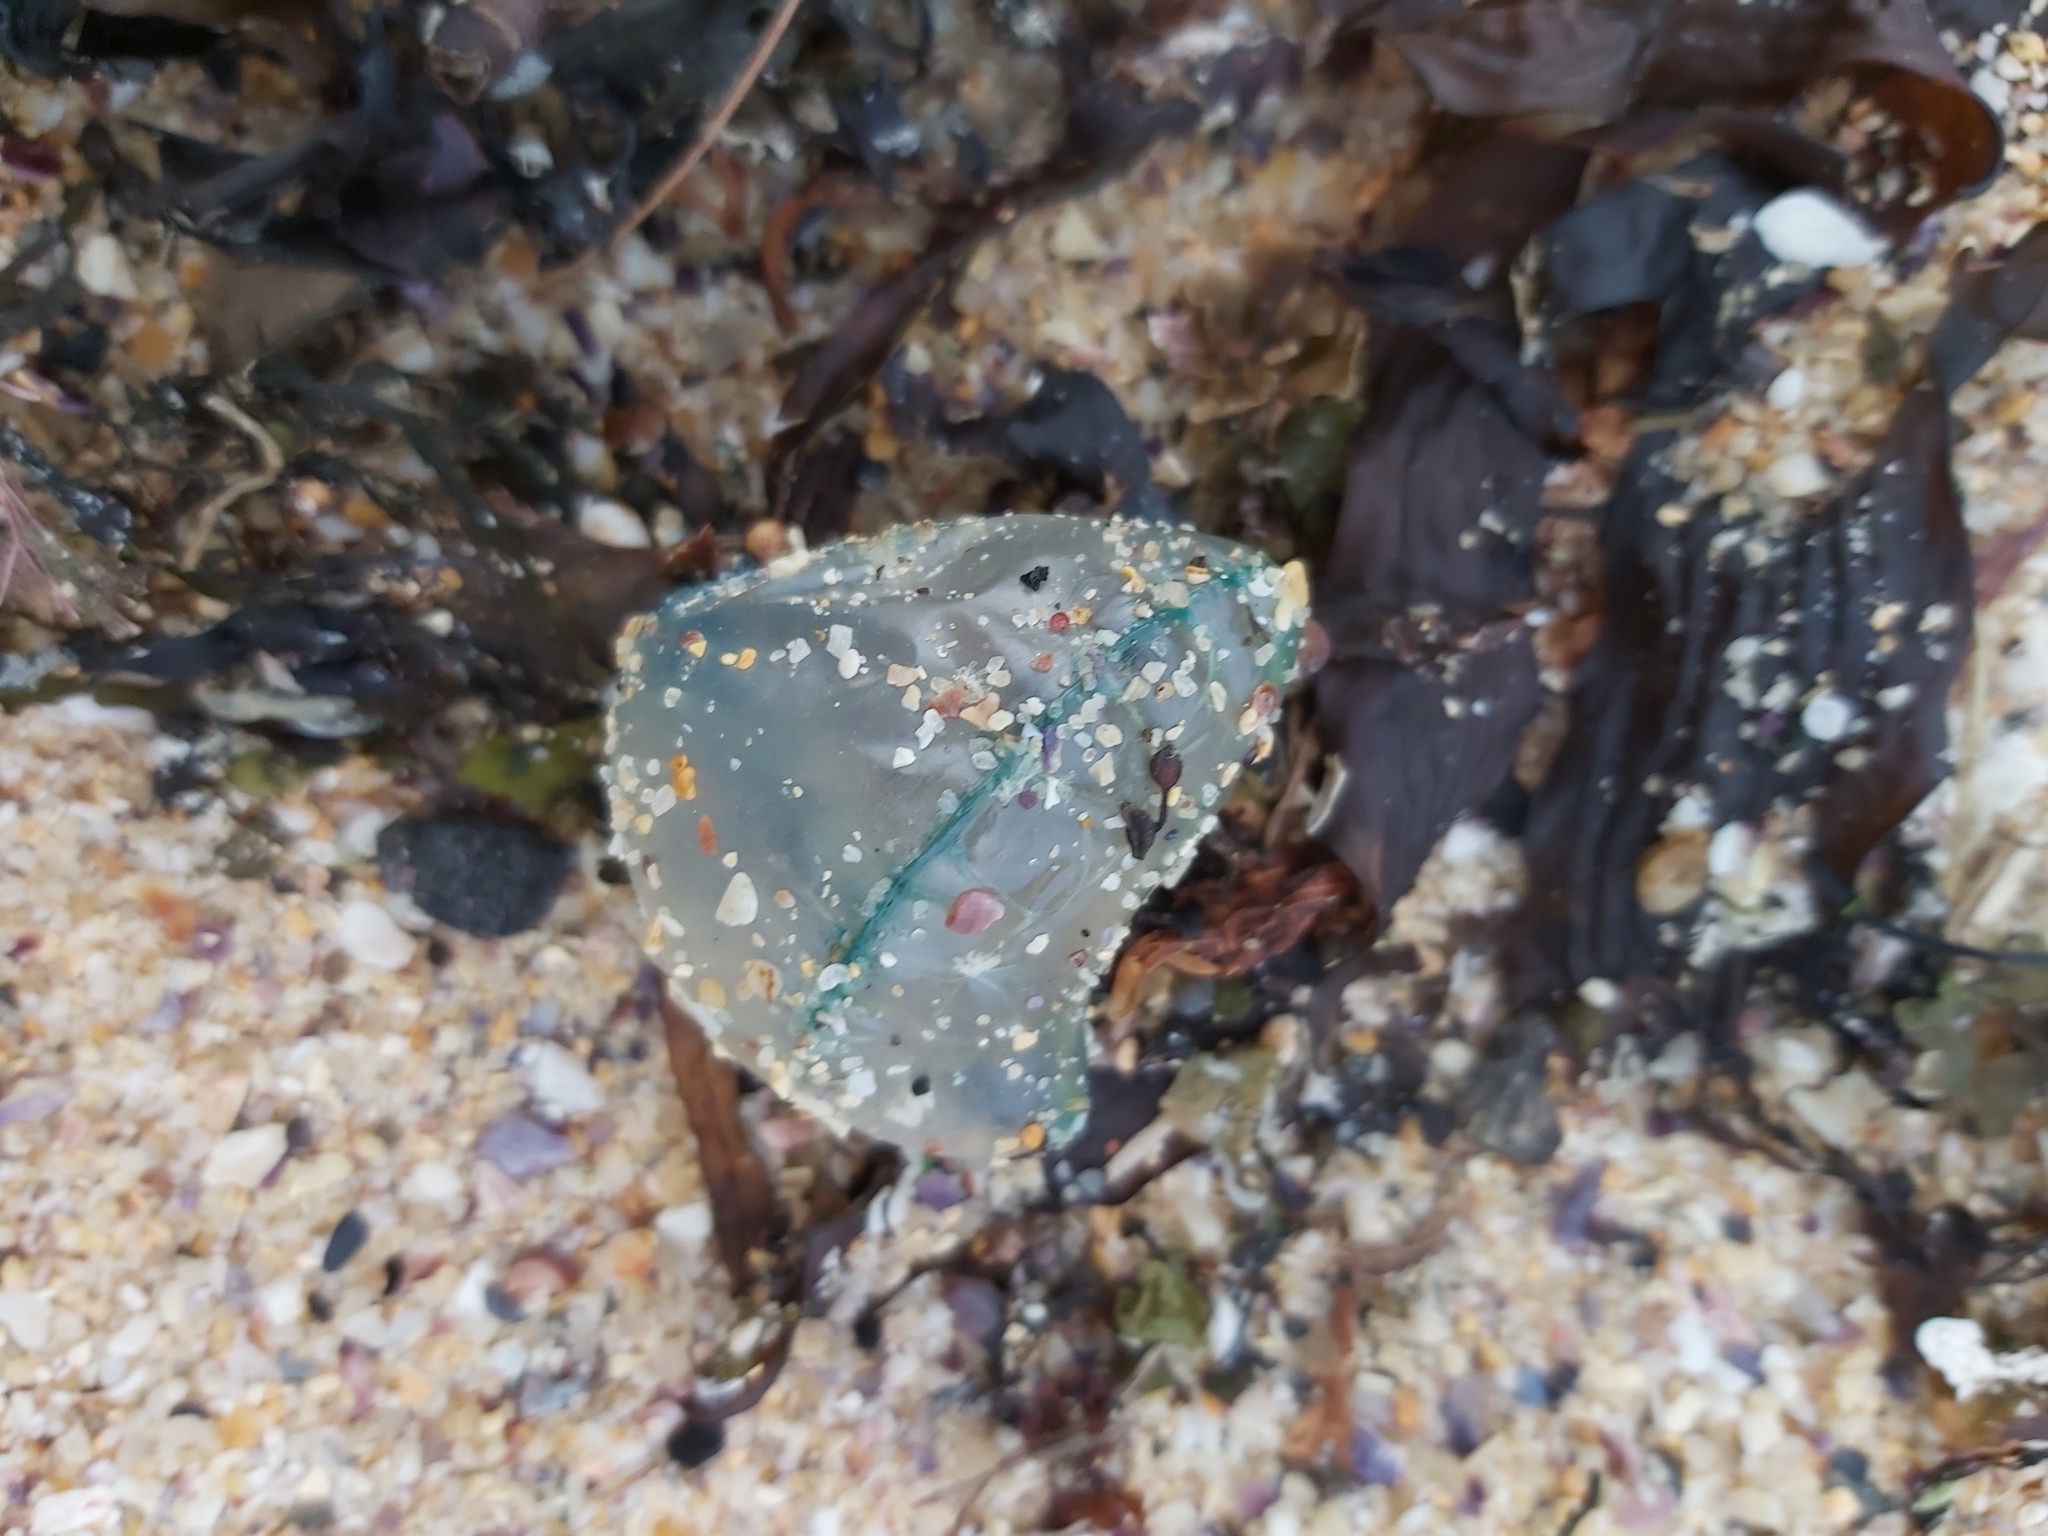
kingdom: Animalia
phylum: Cnidaria
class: Hydrozoa
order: Siphonophorae
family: Physaliidae
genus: Physalia
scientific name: Physalia physalis
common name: Portuguese man-of-war
